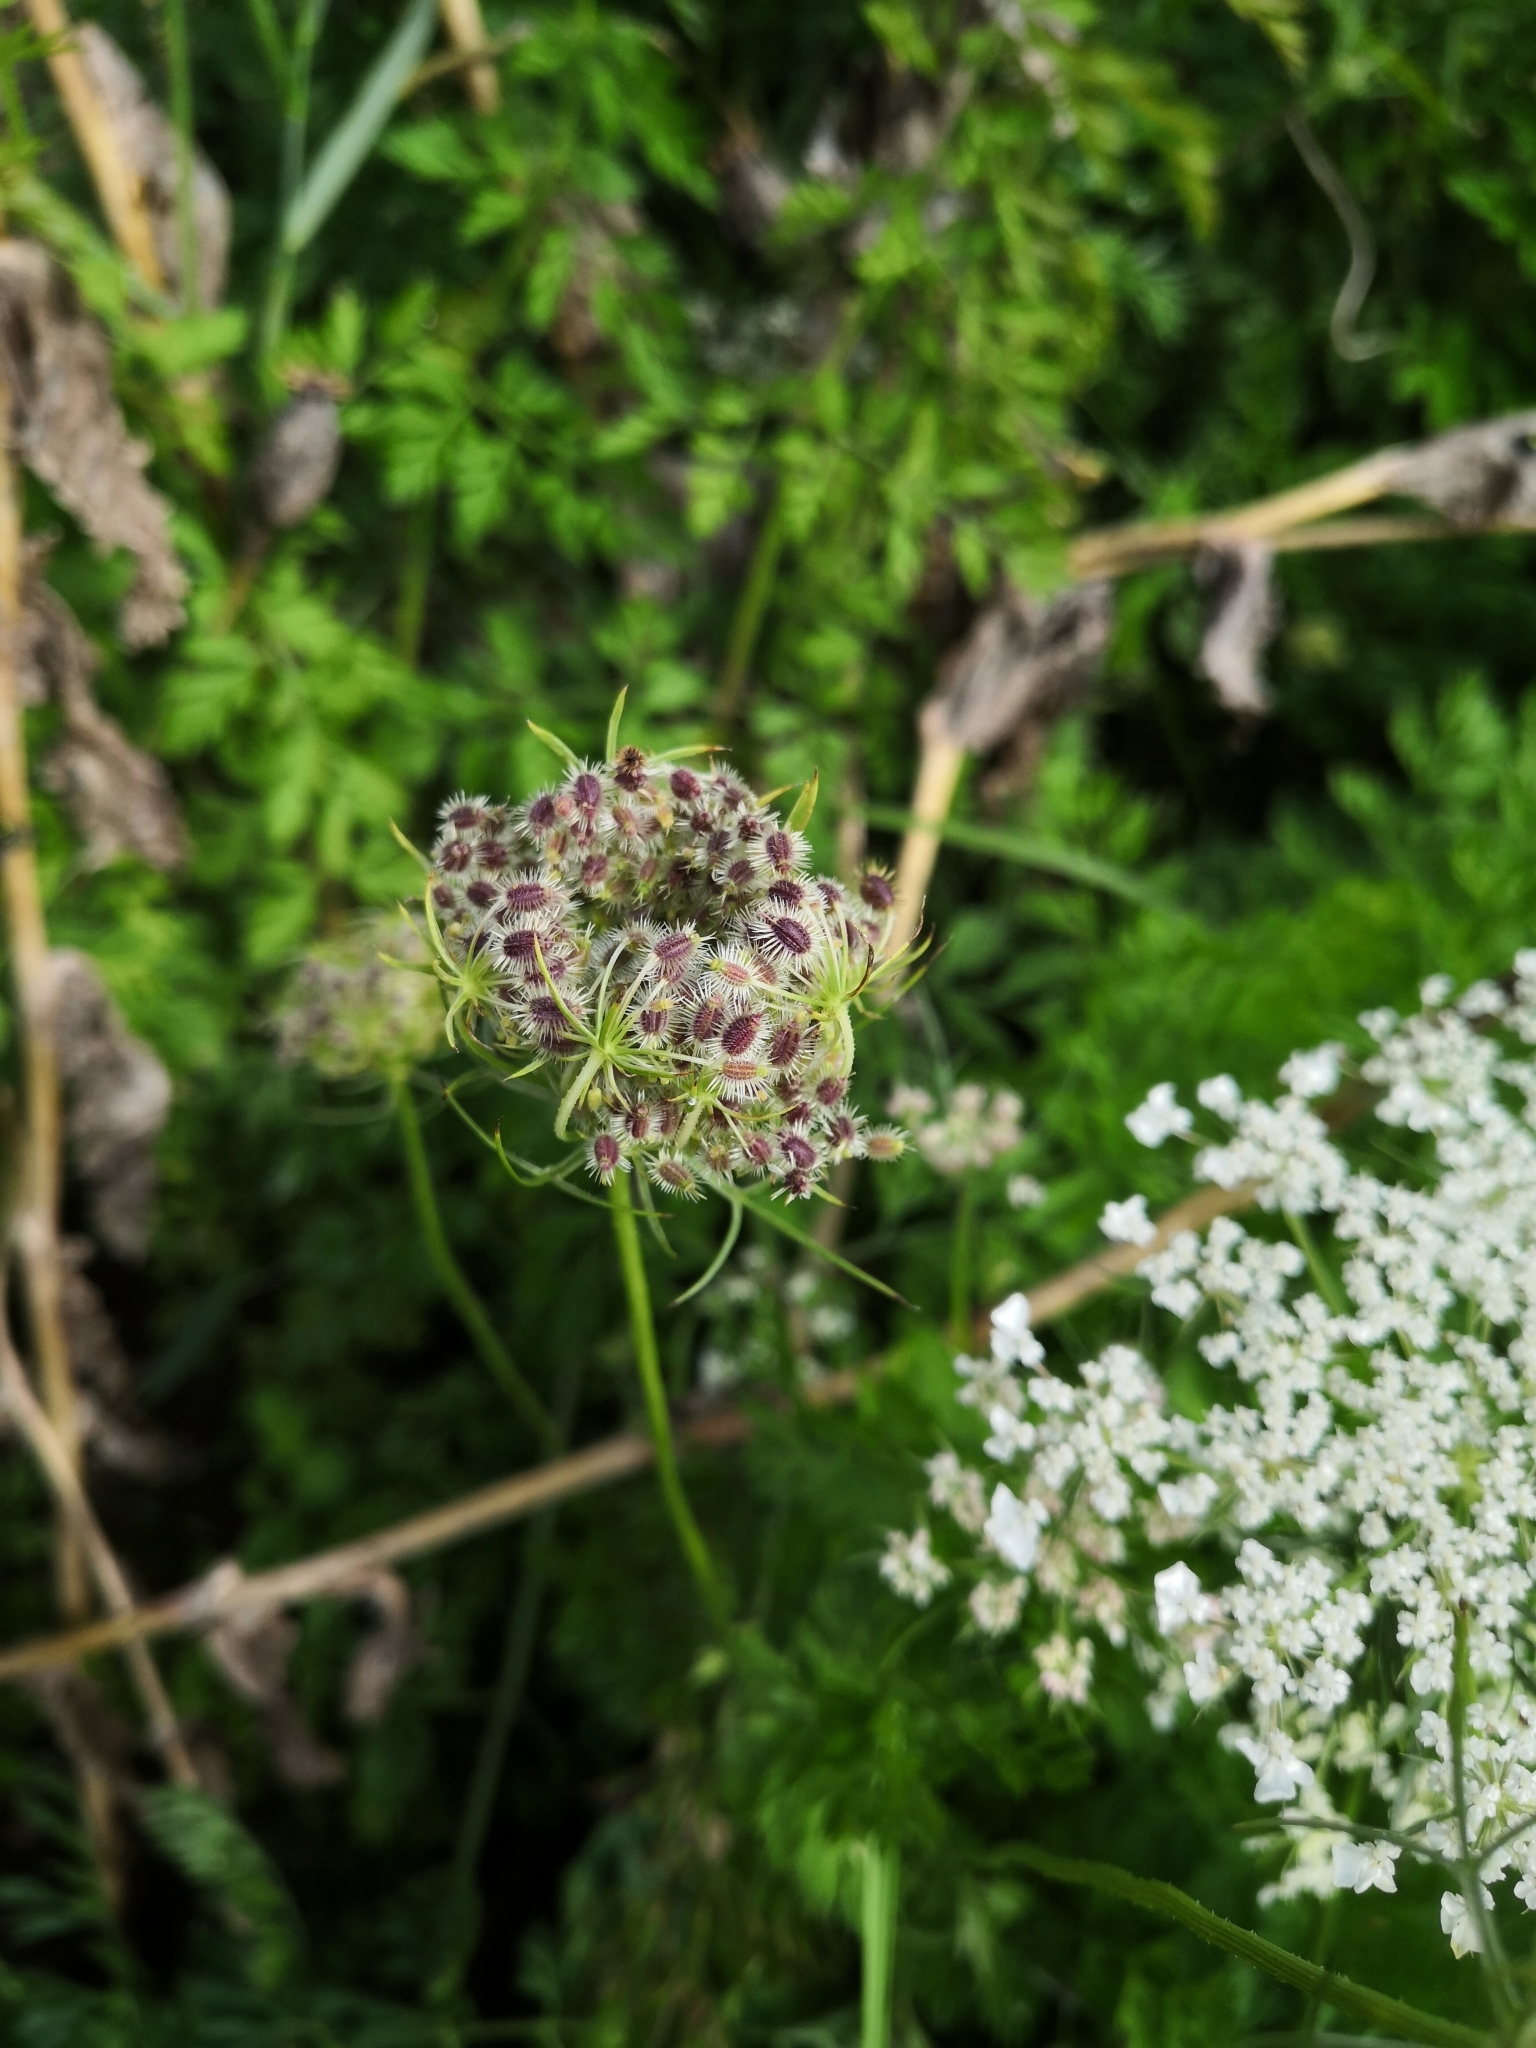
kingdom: Plantae
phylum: Tracheophyta
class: Magnoliopsida
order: Apiales
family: Apiaceae
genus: Daucus
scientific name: Daucus carota
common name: Wild carrot
